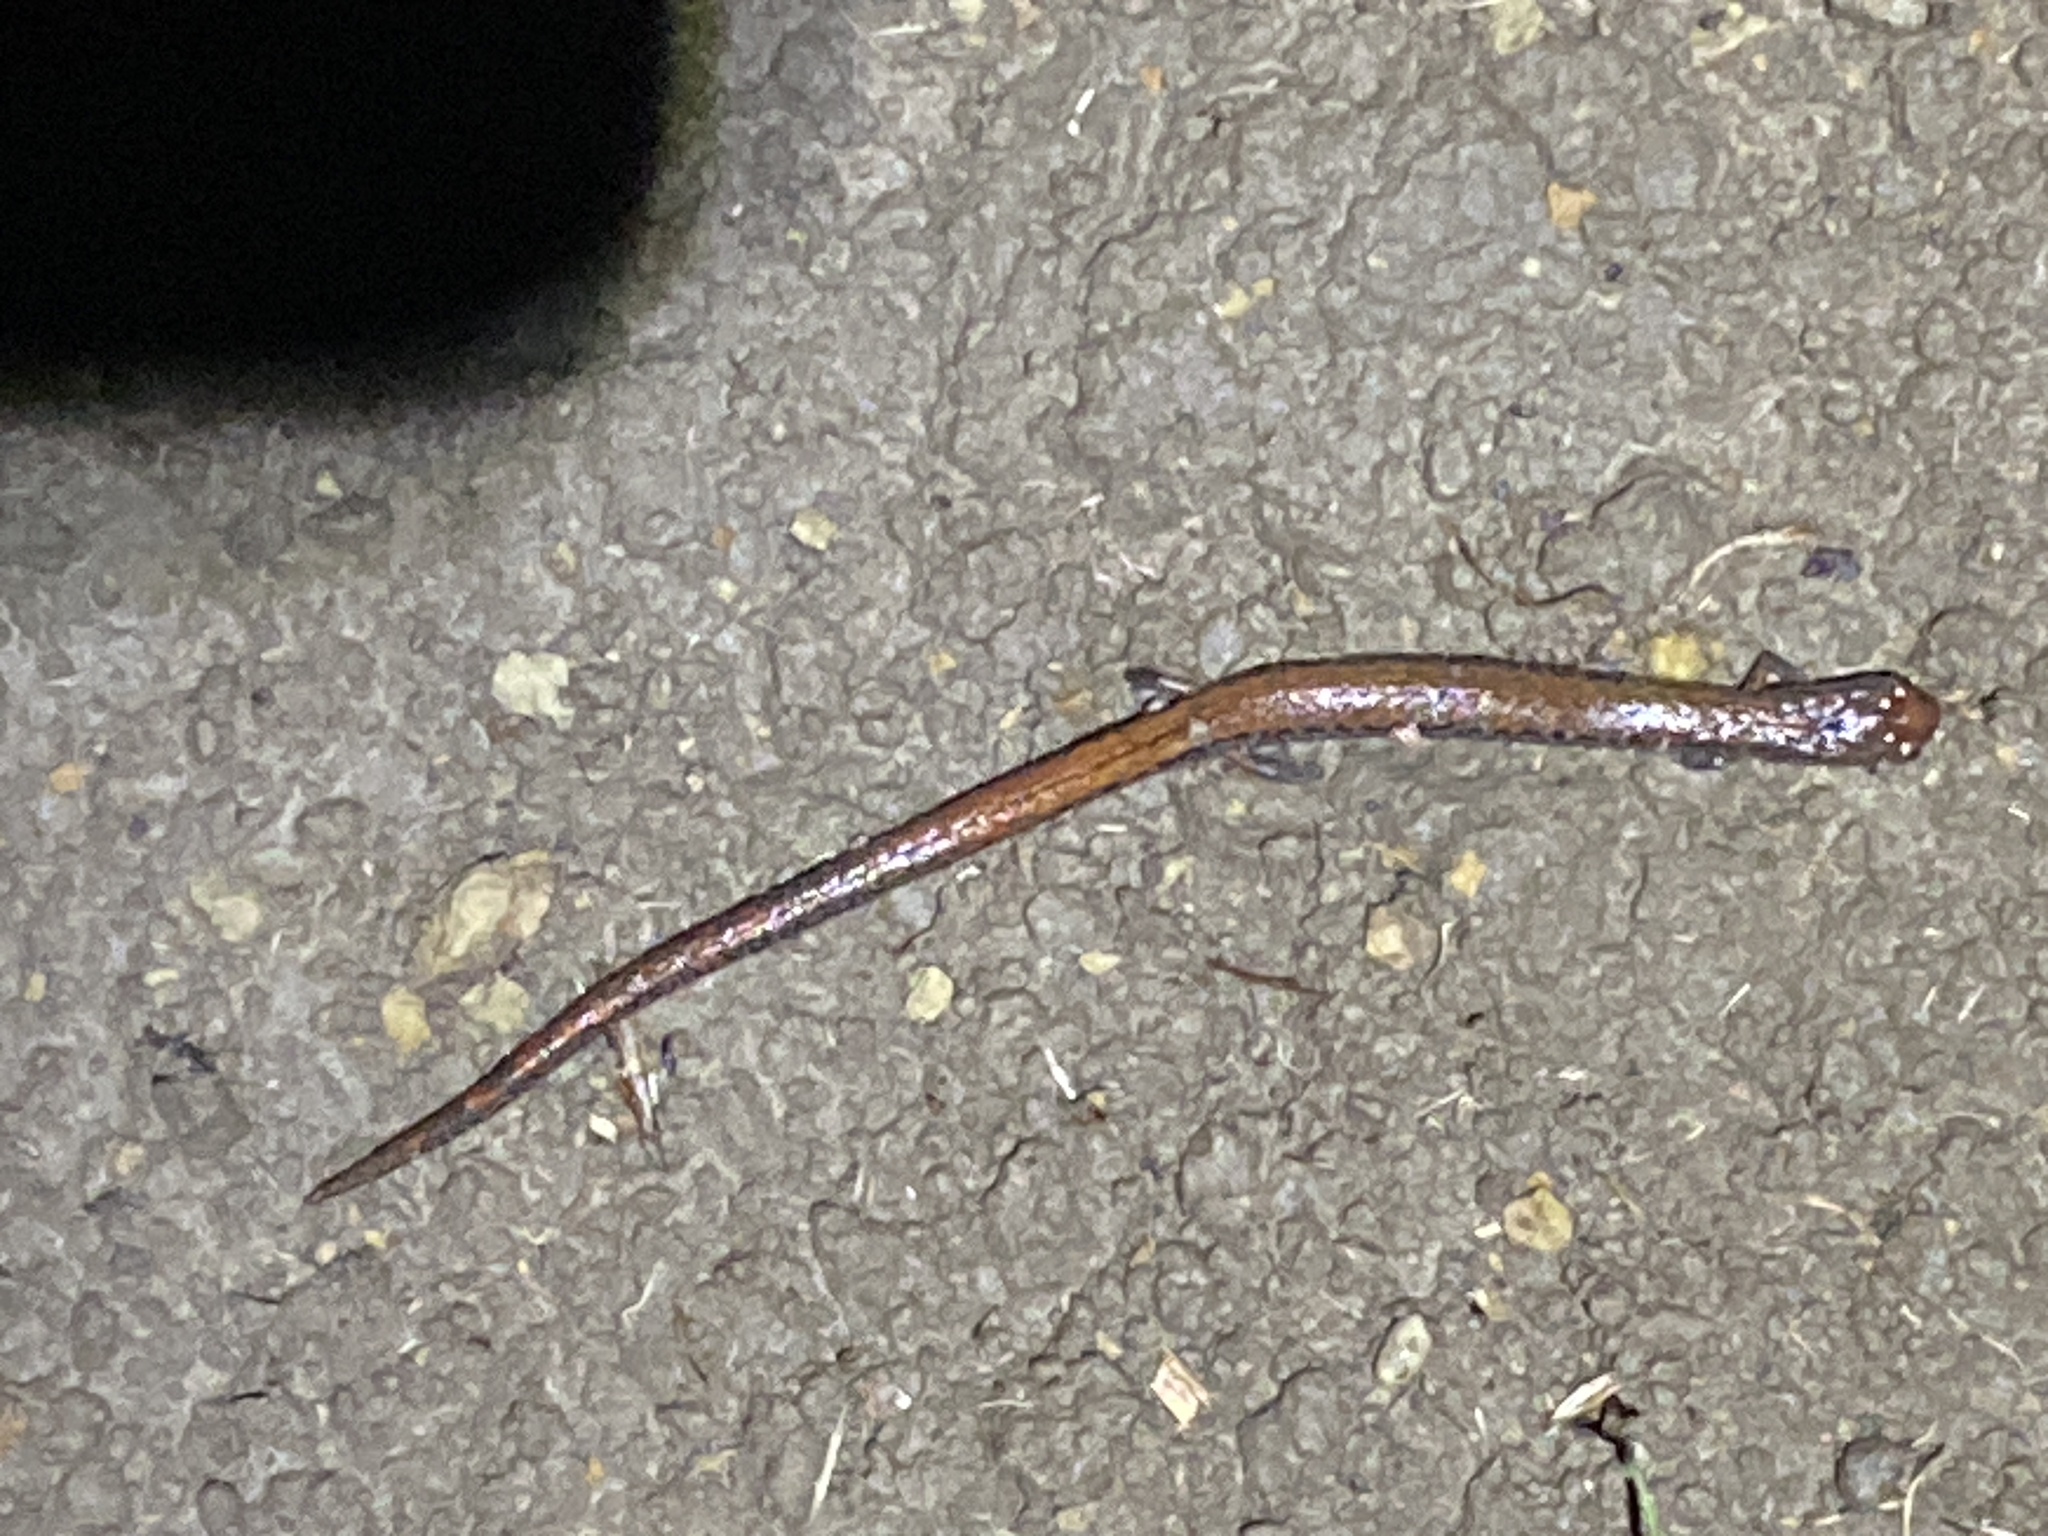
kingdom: Animalia
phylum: Chordata
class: Amphibia
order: Caudata
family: Plethodontidae
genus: Batrachoseps
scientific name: Batrachoseps attenuatus
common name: California slender salamander
